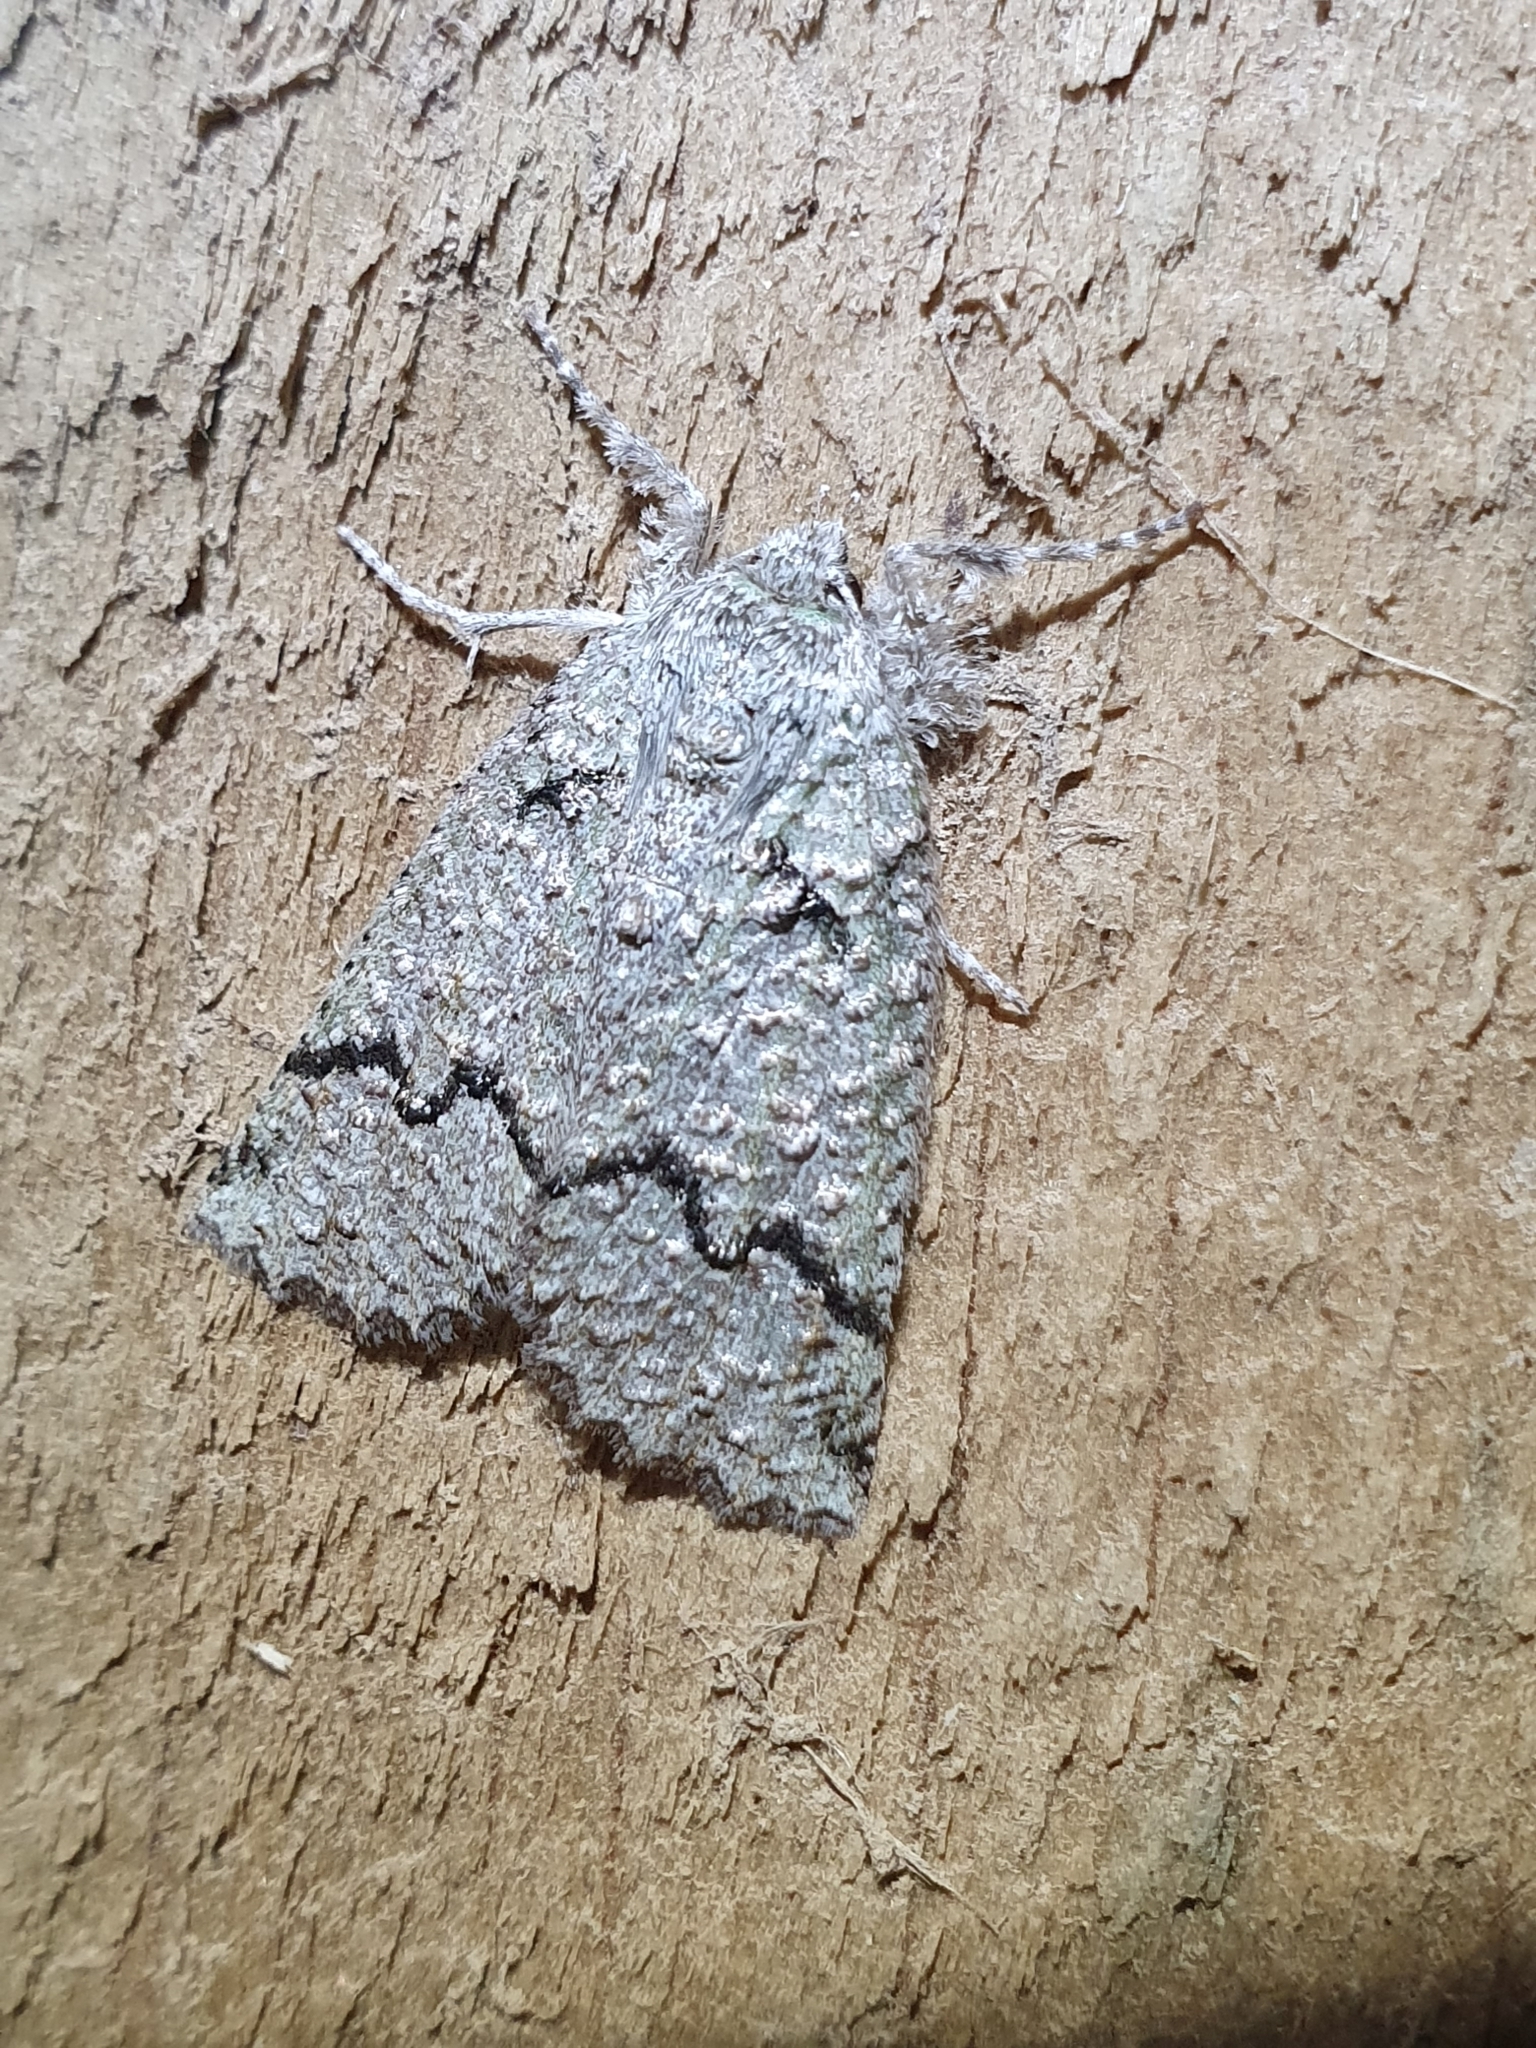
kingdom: Animalia
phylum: Arthropoda
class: Insecta
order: Lepidoptera
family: Geometridae
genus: Declana
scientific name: Declana floccosa
